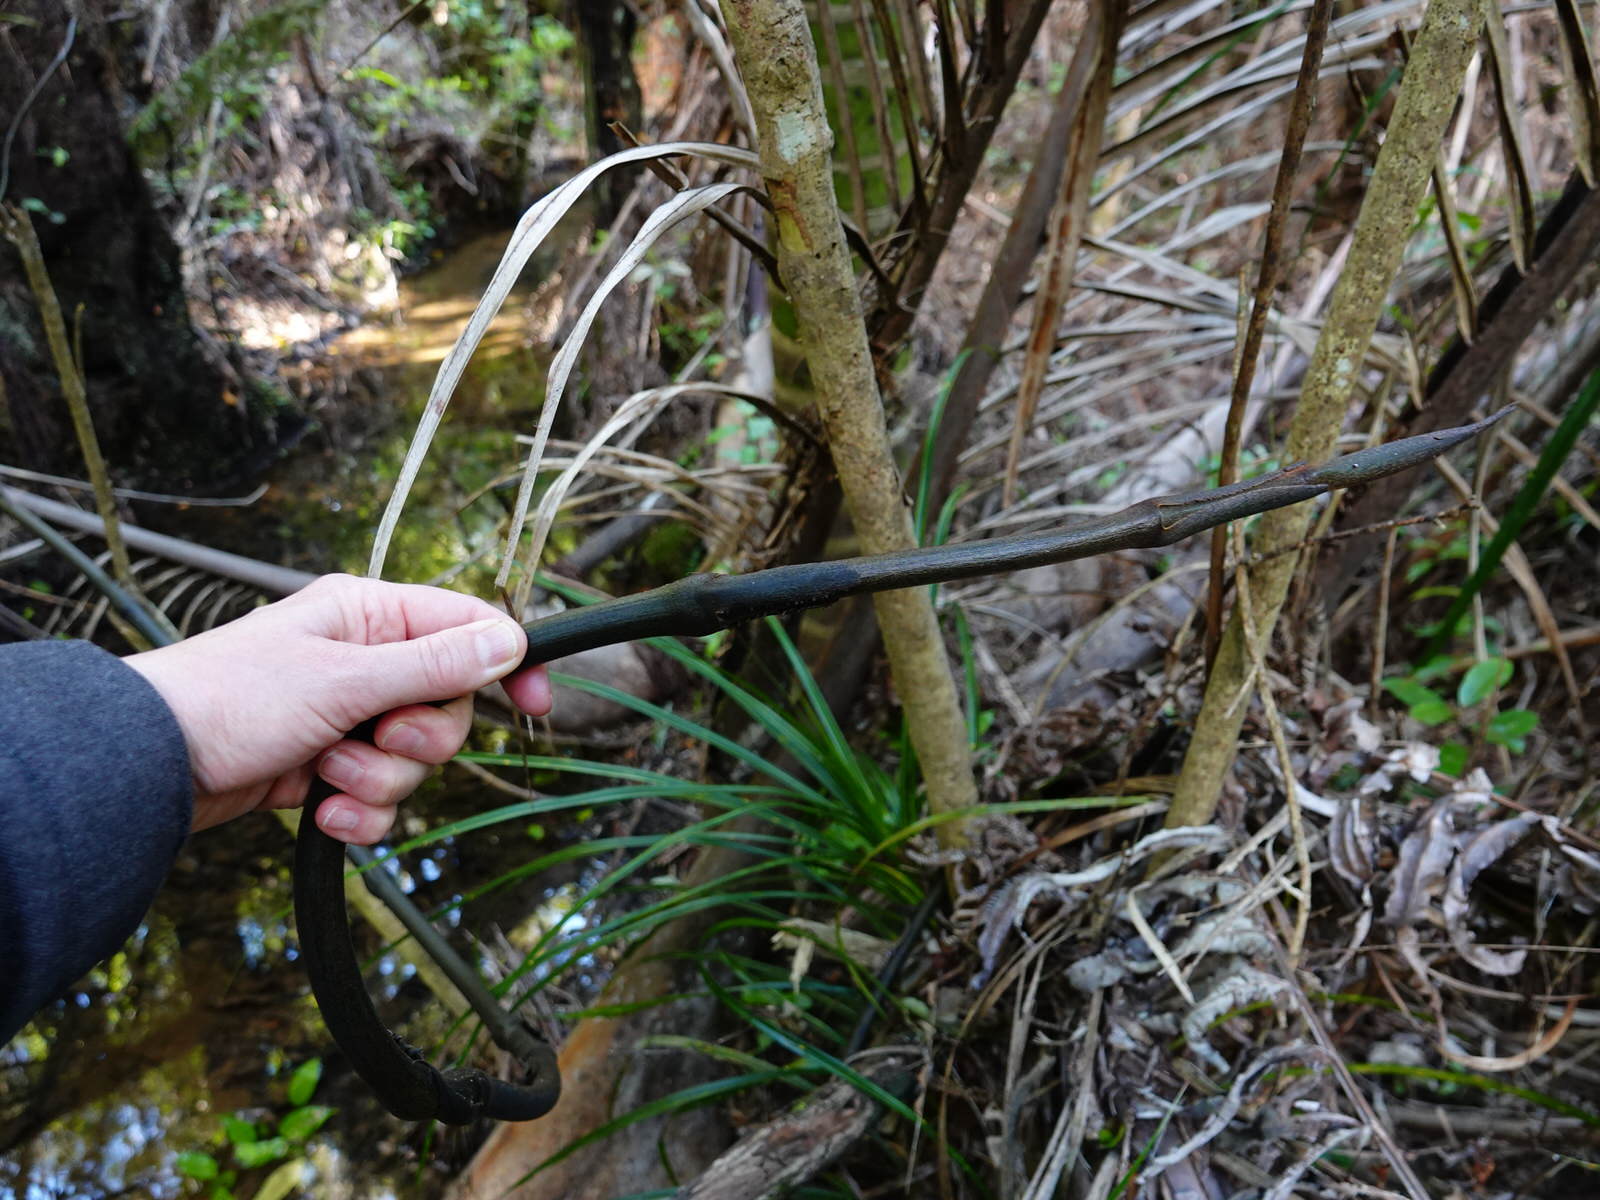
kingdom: Plantae
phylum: Tracheophyta
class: Liliopsida
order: Liliales
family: Ripogonaceae
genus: Ripogonum
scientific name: Ripogonum scandens
